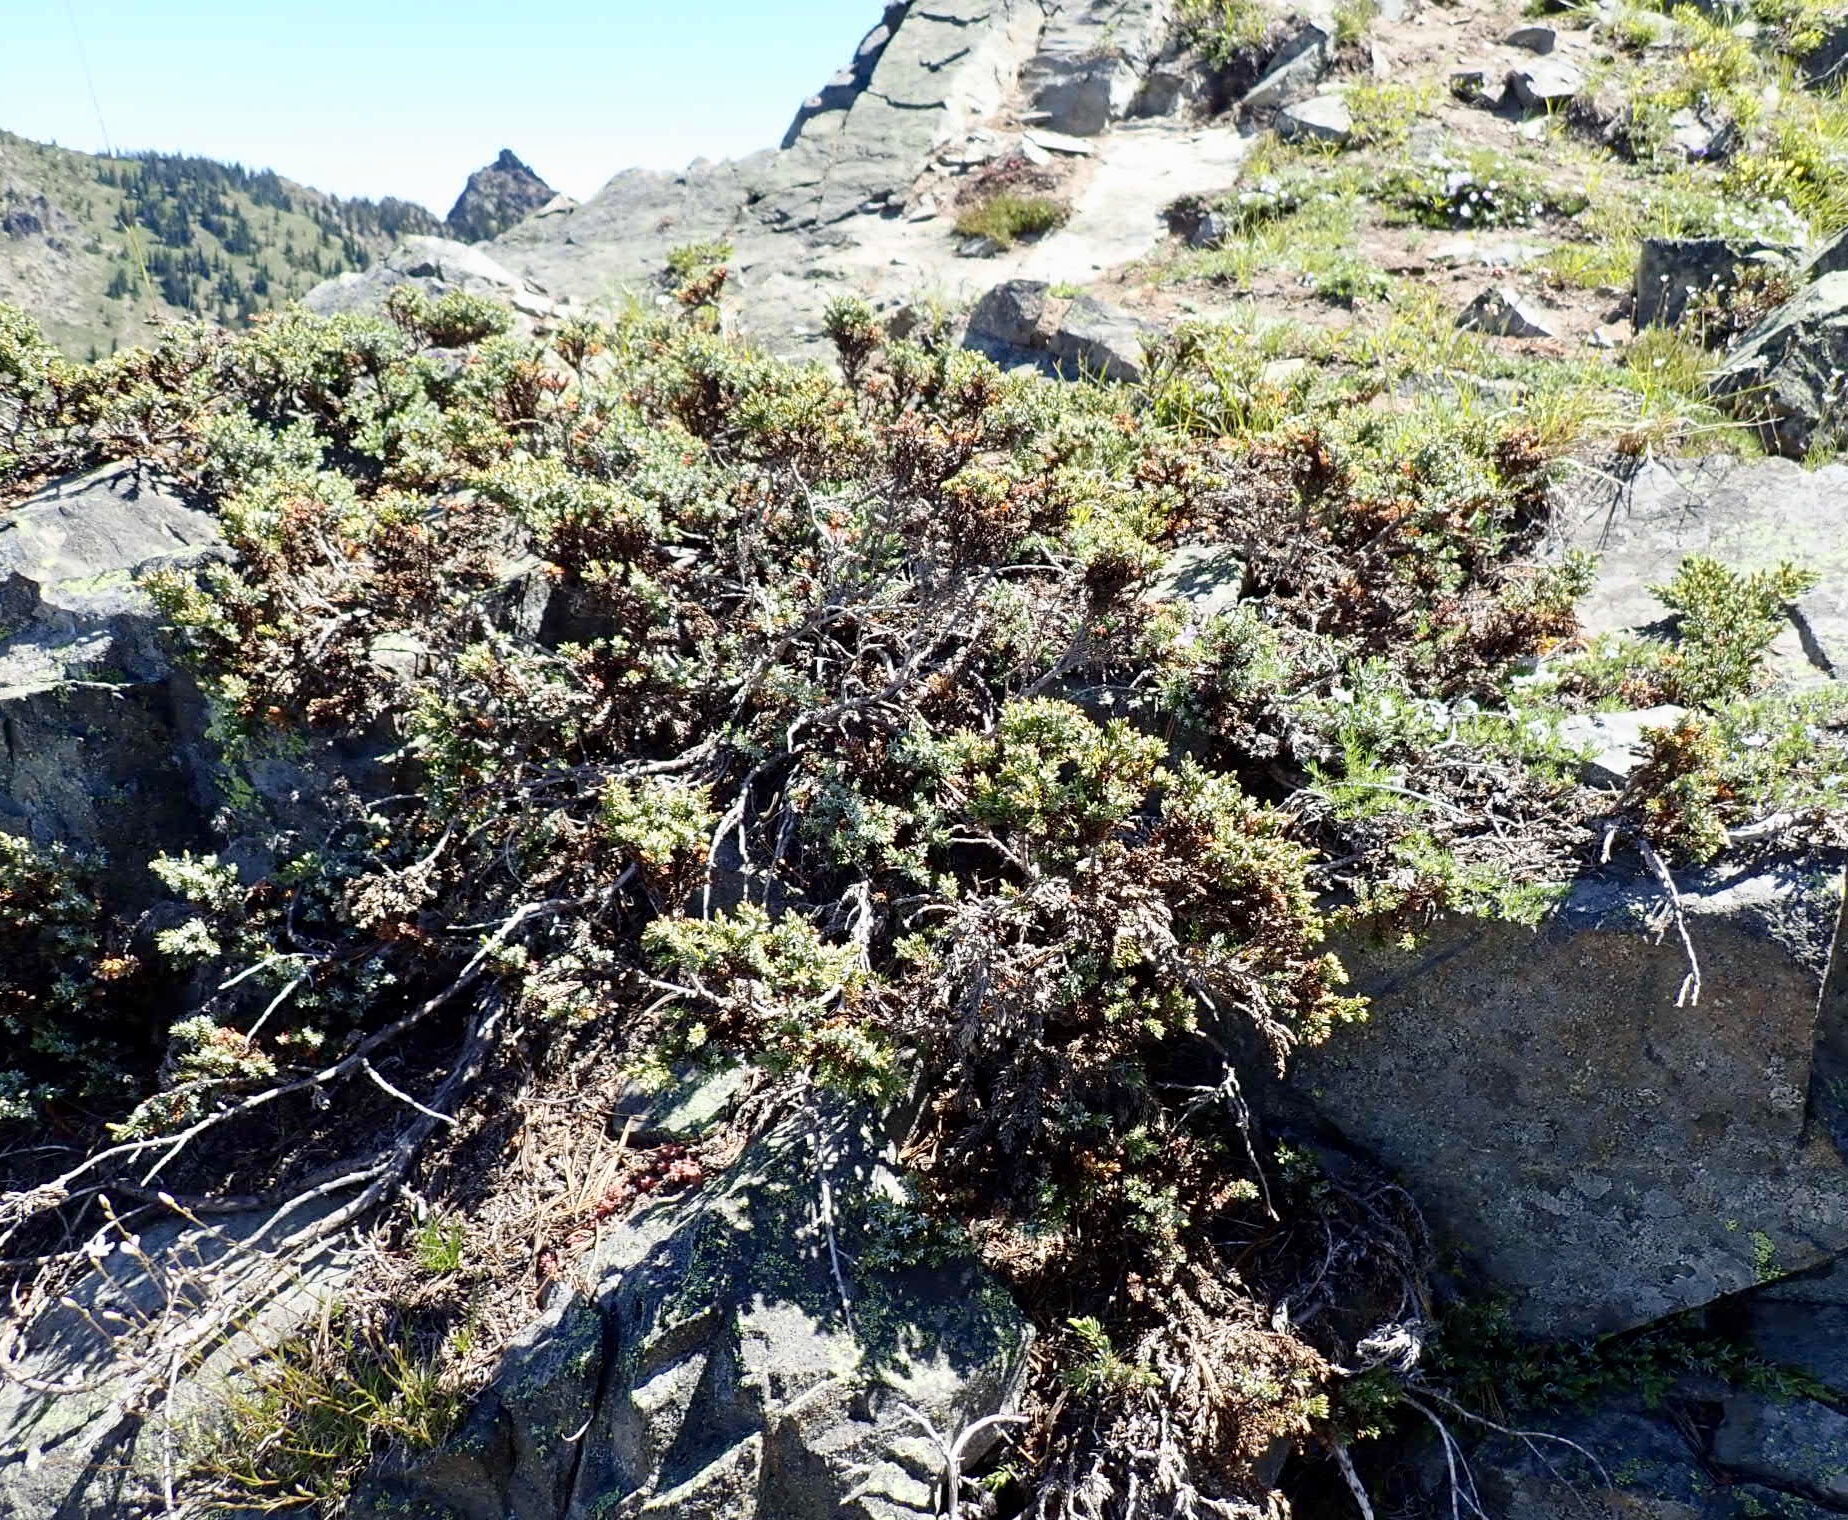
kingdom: Plantae
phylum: Tracheophyta
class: Pinopsida
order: Pinales
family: Cupressaceae
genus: Juniperus
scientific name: Juniperus communis
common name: Common juniper
